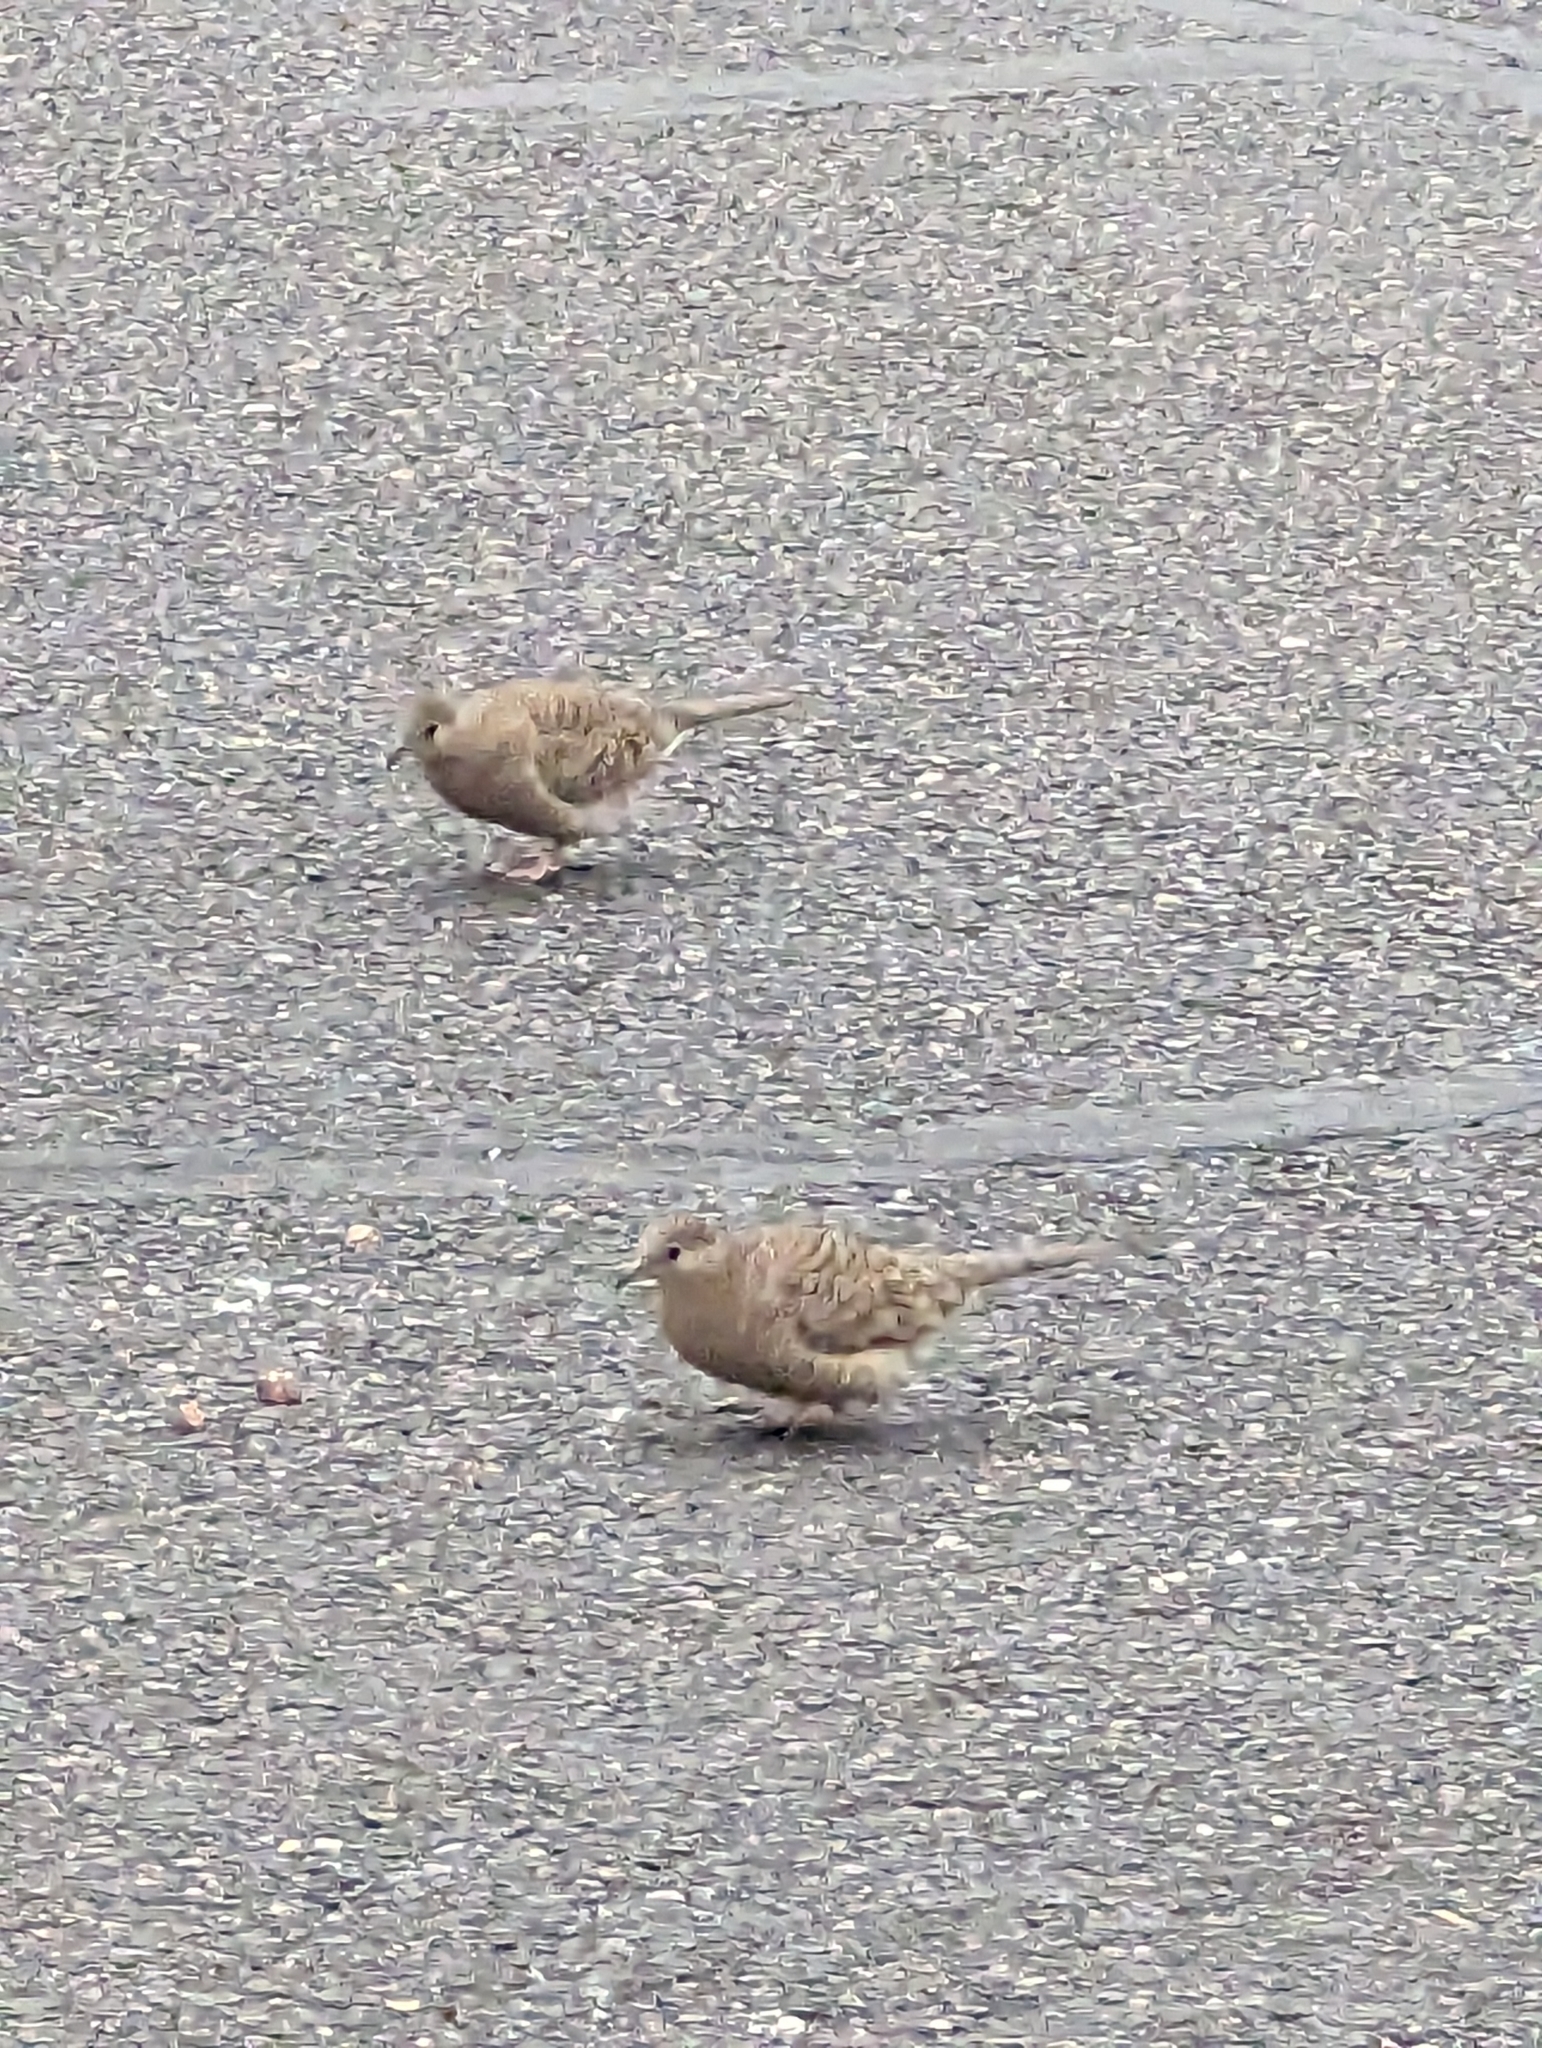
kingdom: Animalia
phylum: Chordata
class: Aves
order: Columbiformes
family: Columbidae
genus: Columbina
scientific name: Columbina inca
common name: Inca dove
